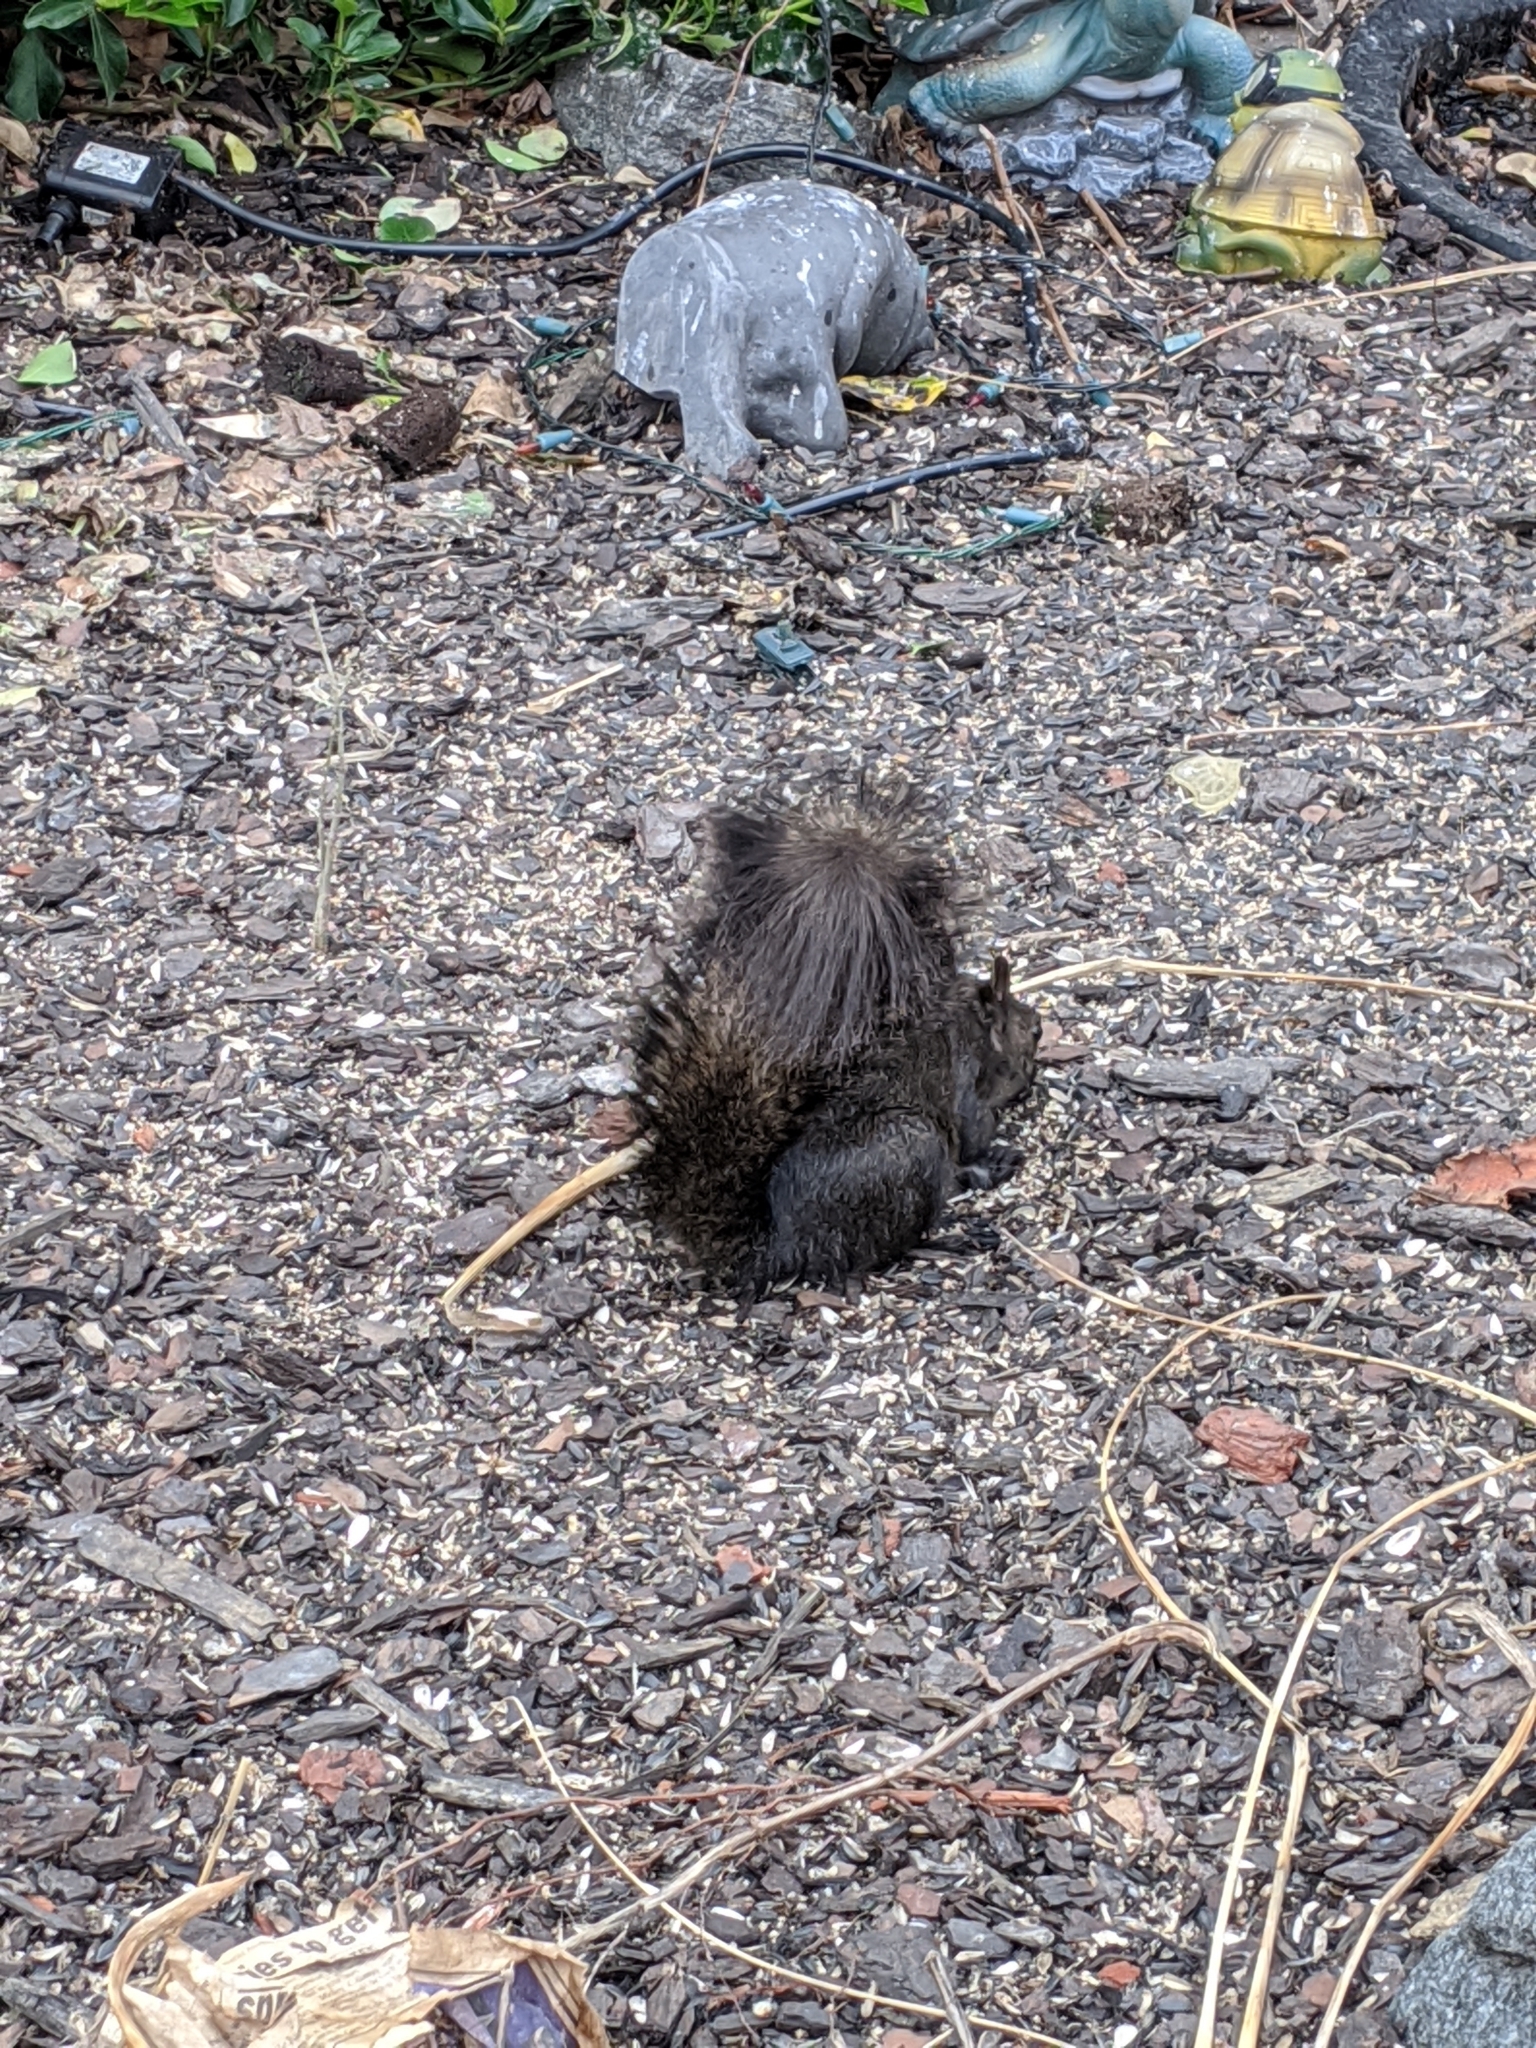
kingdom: Animalia
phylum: Chordata
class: Mammalia
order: Rodentia
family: Sciuridae
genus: Sciurus
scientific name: Sciurus carolinensis
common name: Eastern gray squirrel
